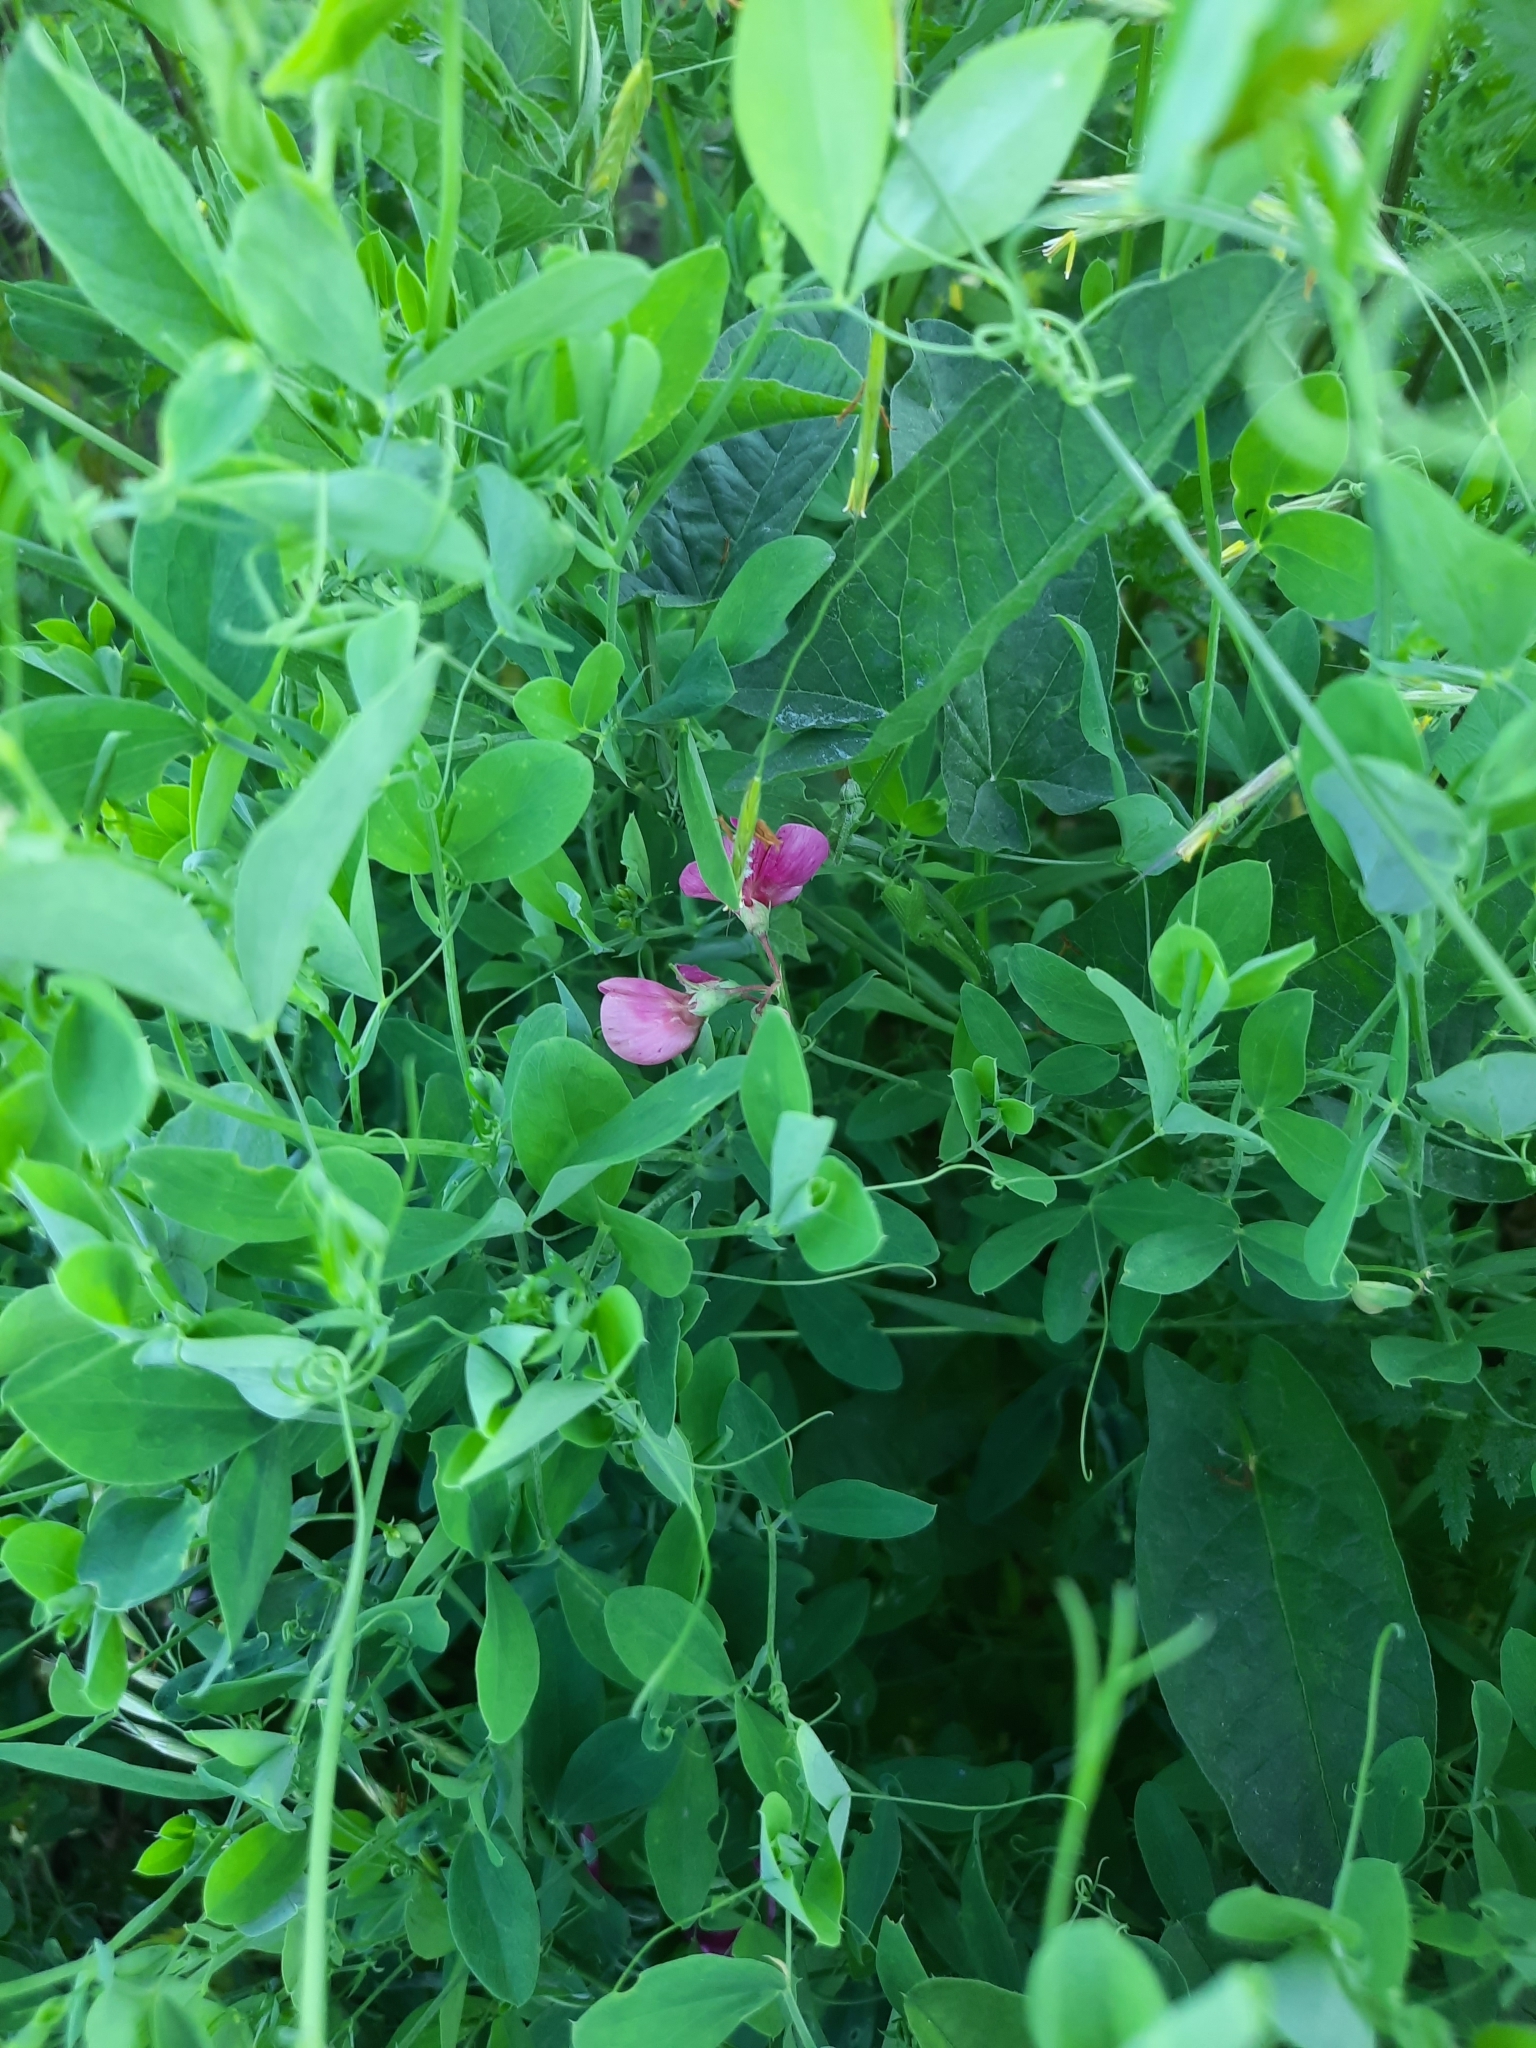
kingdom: Plantae
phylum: Tracheophyta
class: Magnoliopsida
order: Fabales
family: Fabaceae
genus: Lathyrus
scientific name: Lathyrus tuberosus
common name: Tuberous pea
